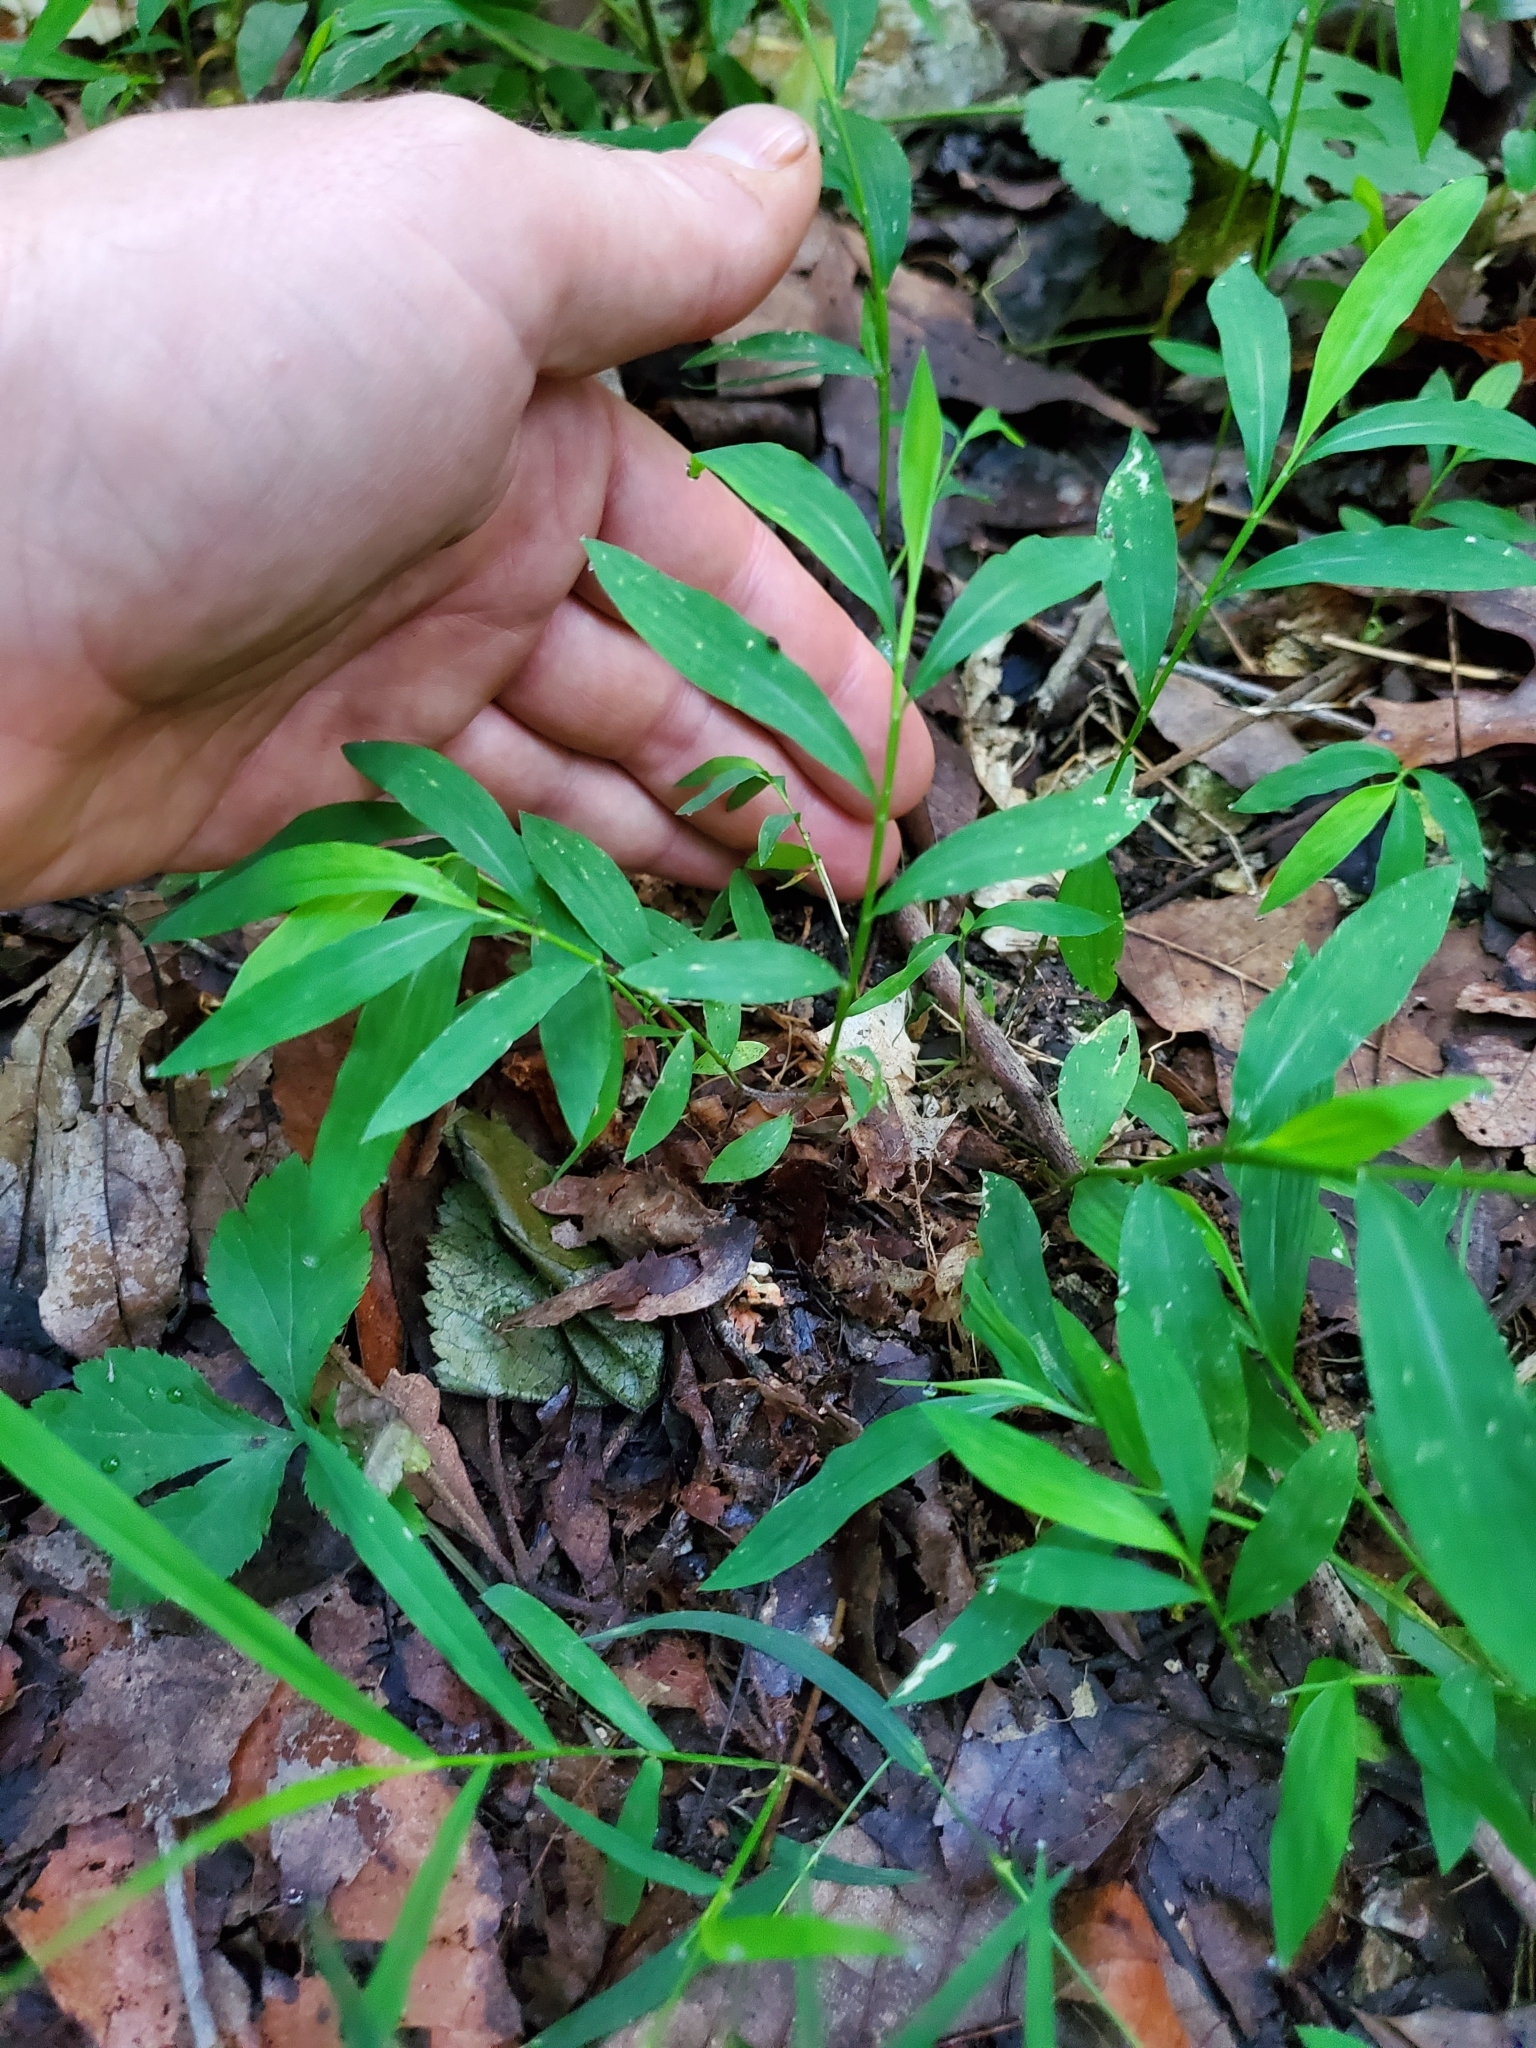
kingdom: Plantae
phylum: Tracheophyta
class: Liliopsida
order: Poales
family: Poaceae
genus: Microstegium
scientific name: Microstegium vimineum
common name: Japanese stiltgrass
